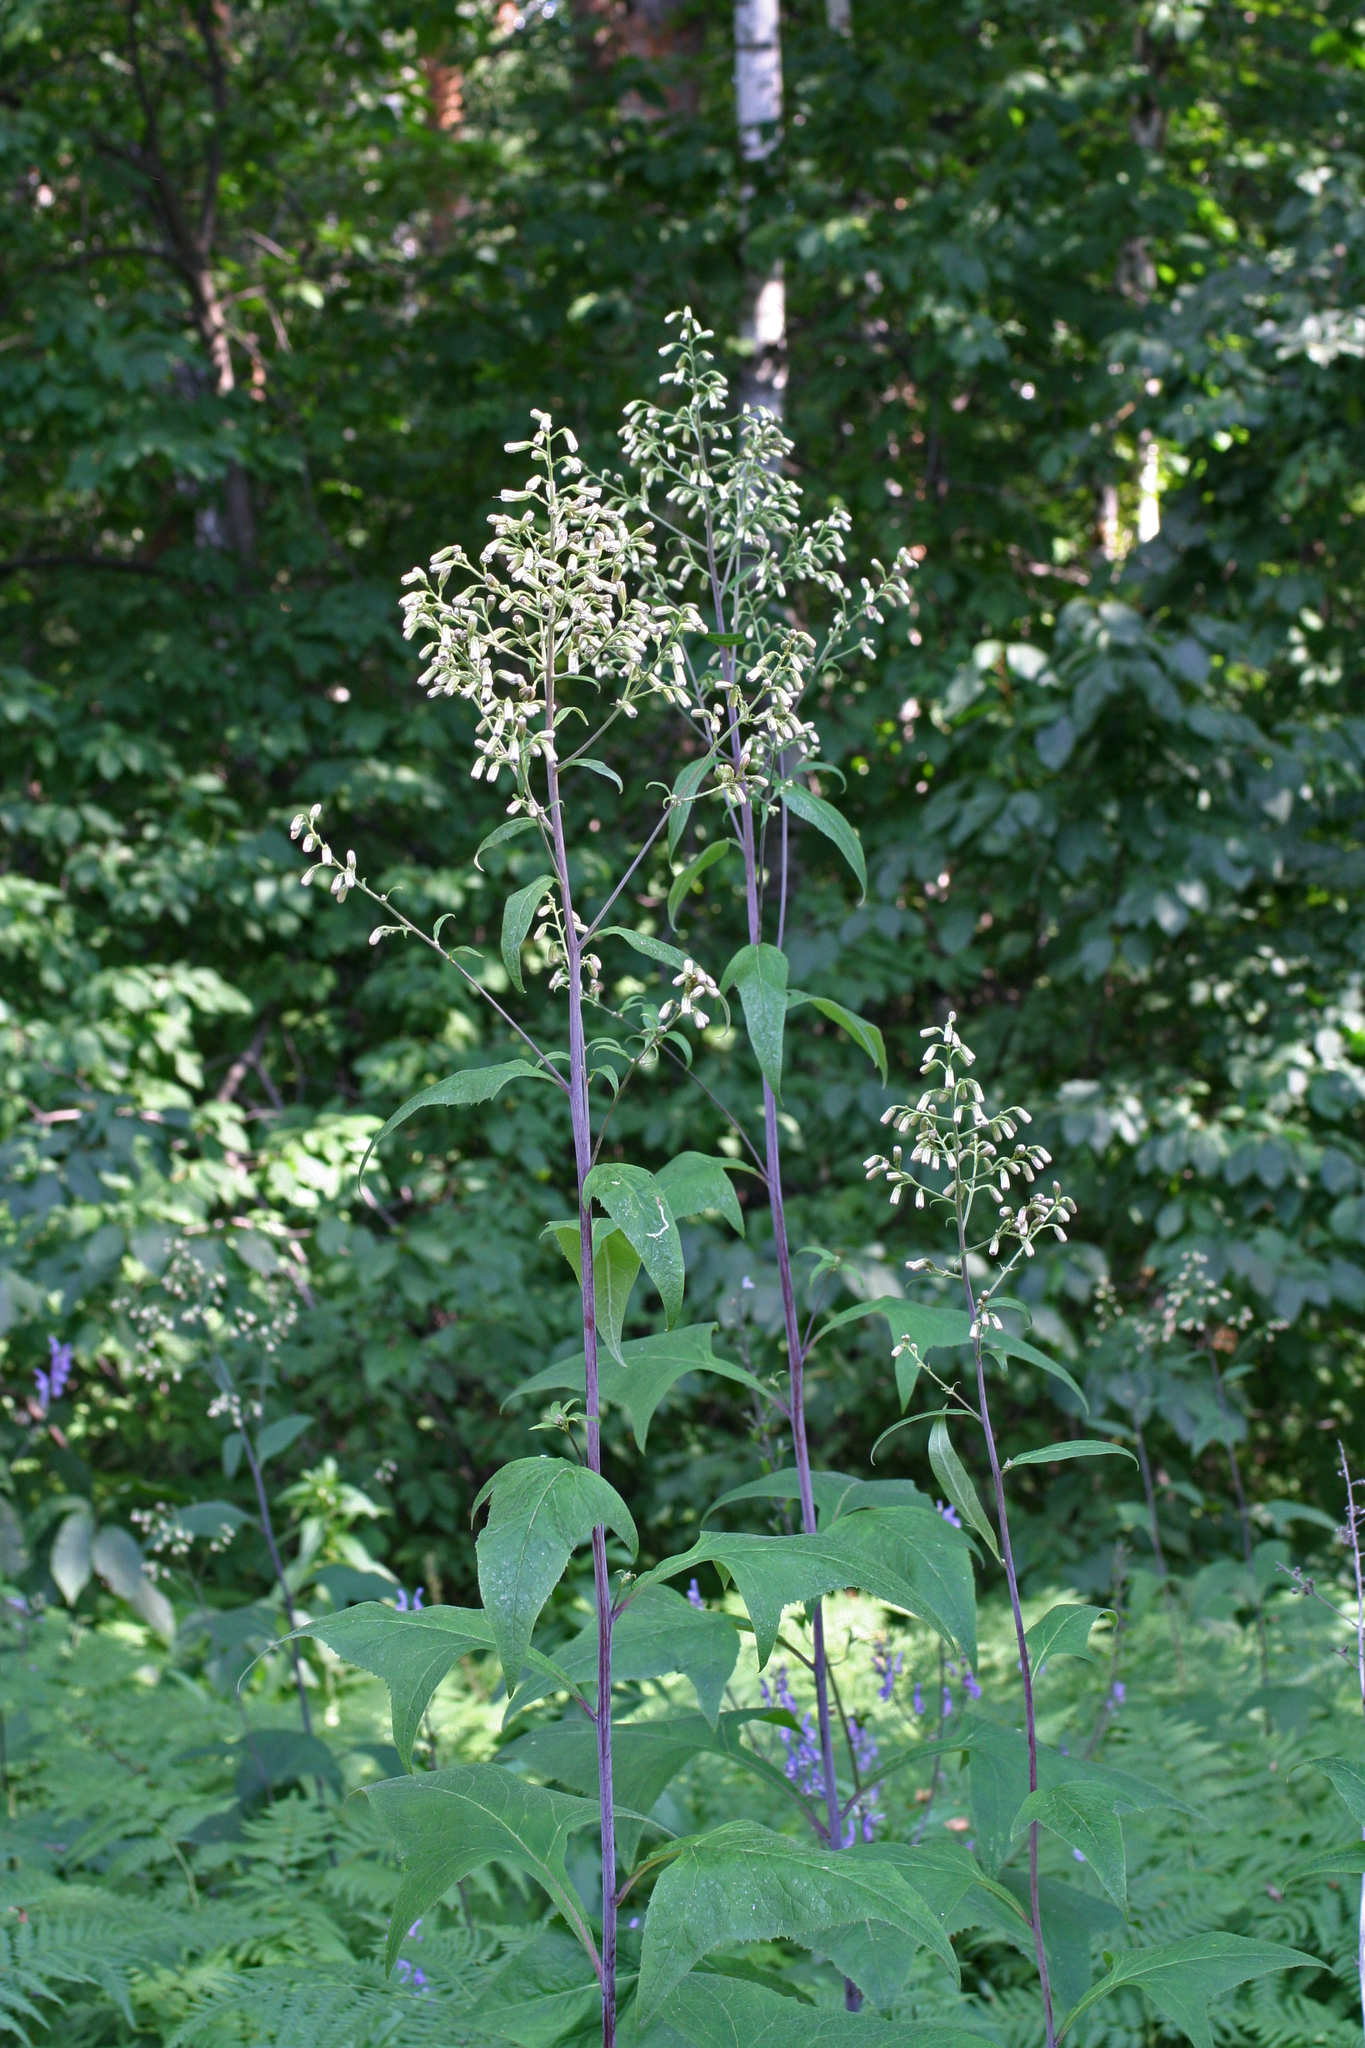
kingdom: Plantae
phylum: Tracheophyta
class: Magnoliopsida
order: Asterales
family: Asteraceae
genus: Parasenecio
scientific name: Parasenecio hastatus
